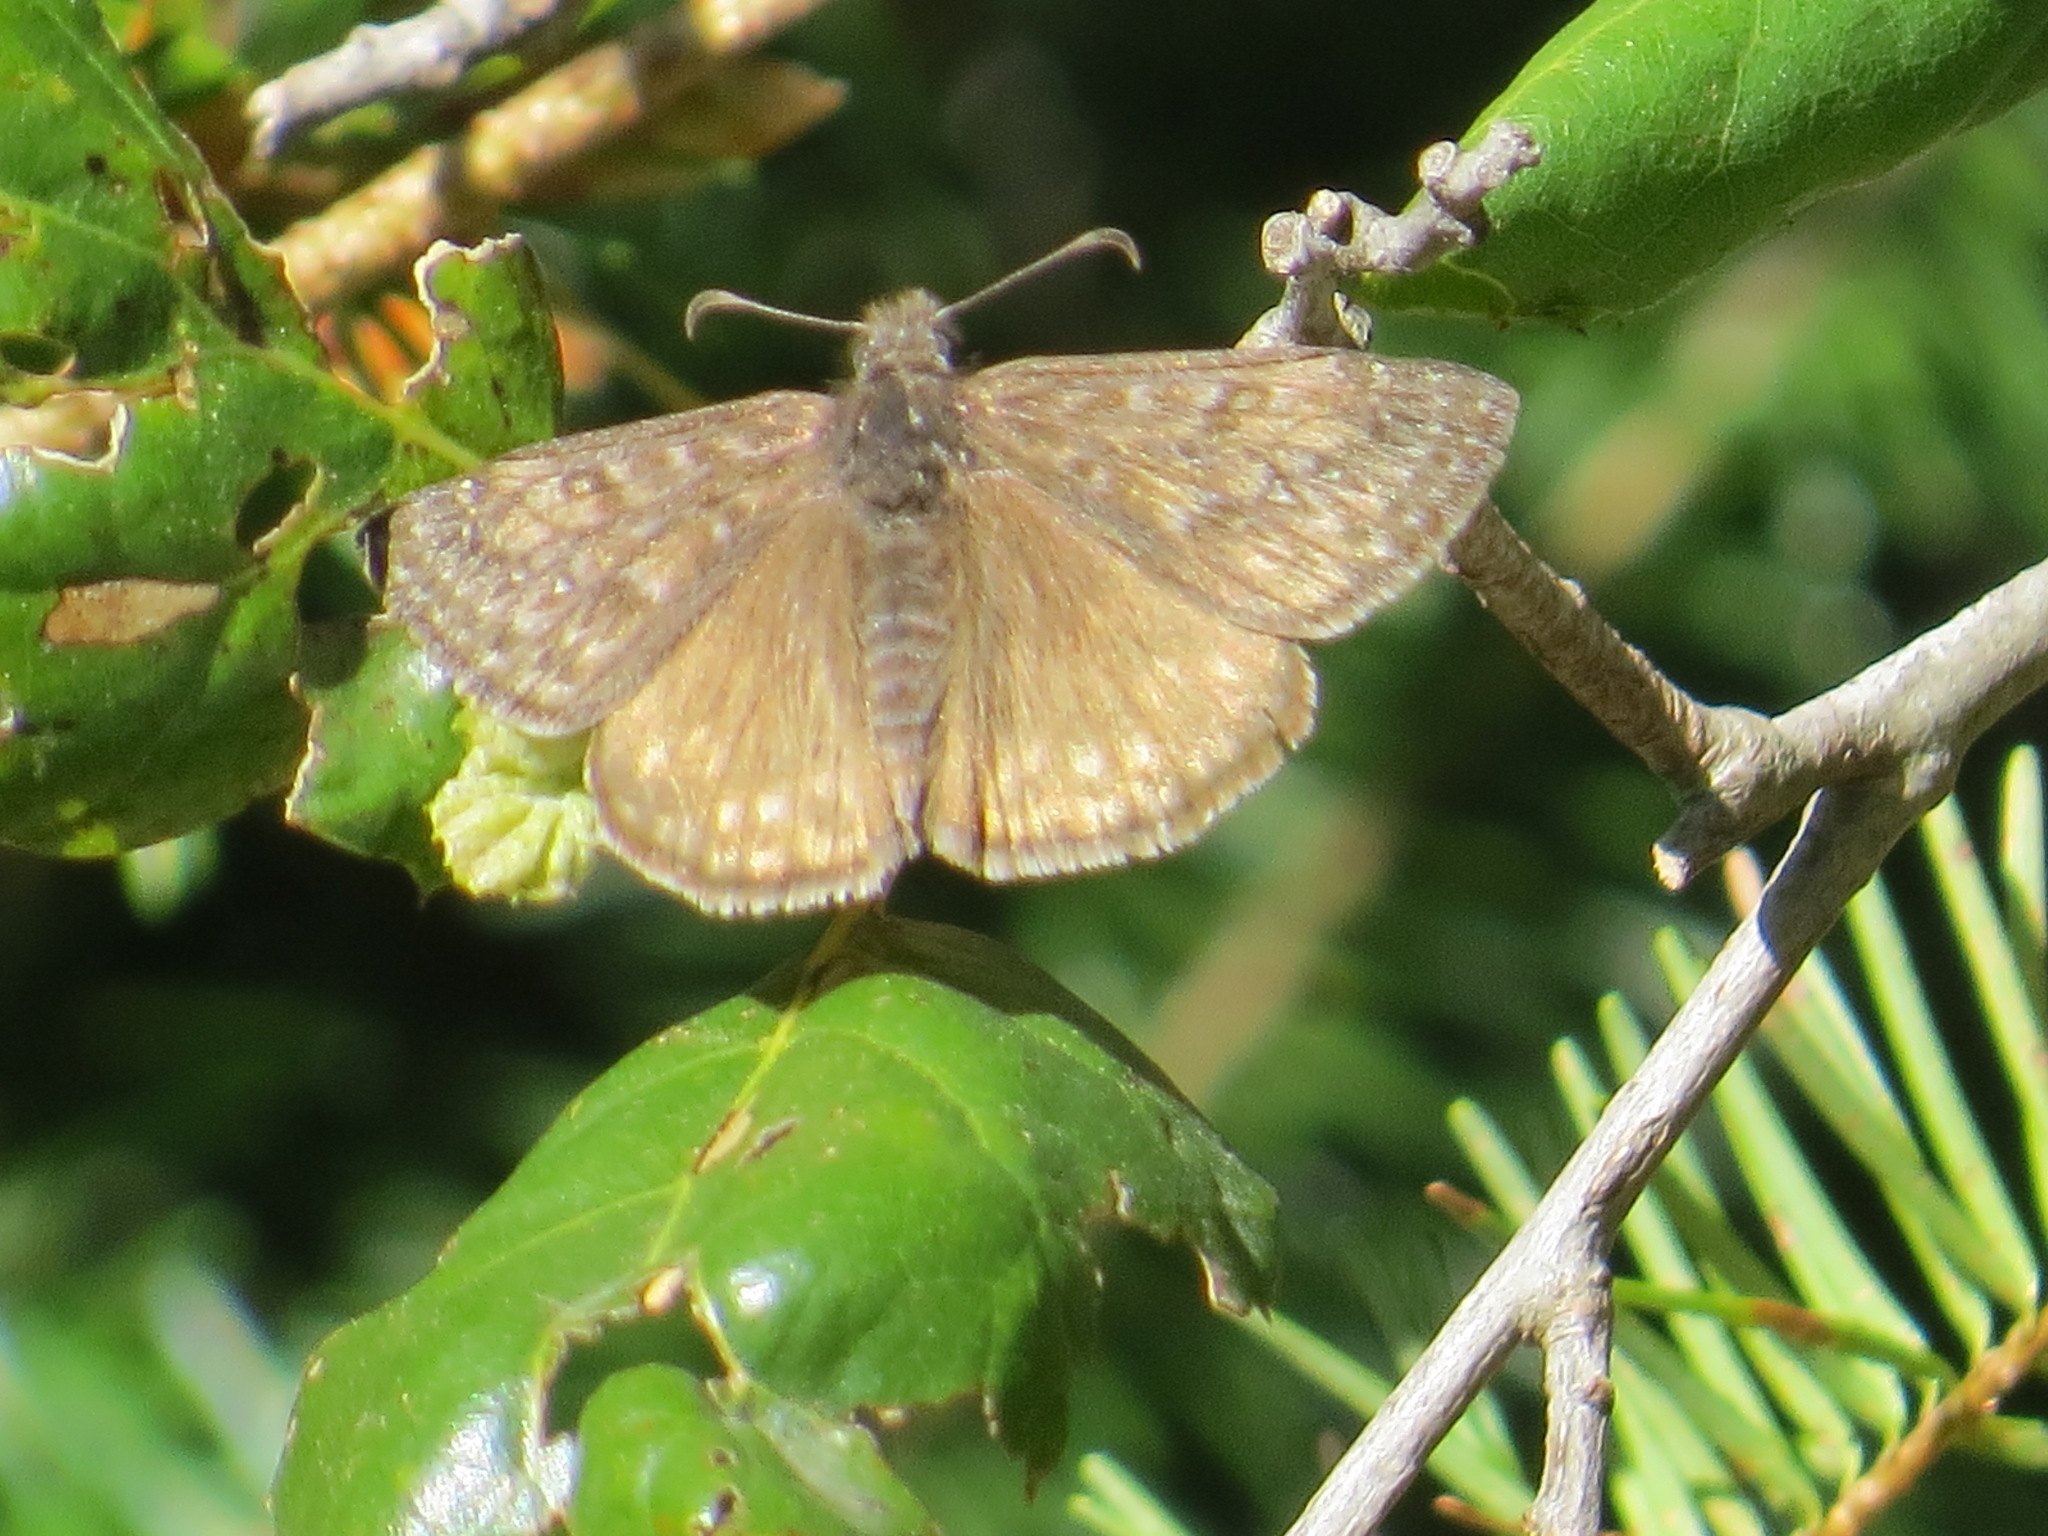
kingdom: Animalia
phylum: Arthropoda
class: Insecta
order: Lepidoptera
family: Hesperiidae
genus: Erynnis
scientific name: Erynnis propertius
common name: Propertius duskywing
